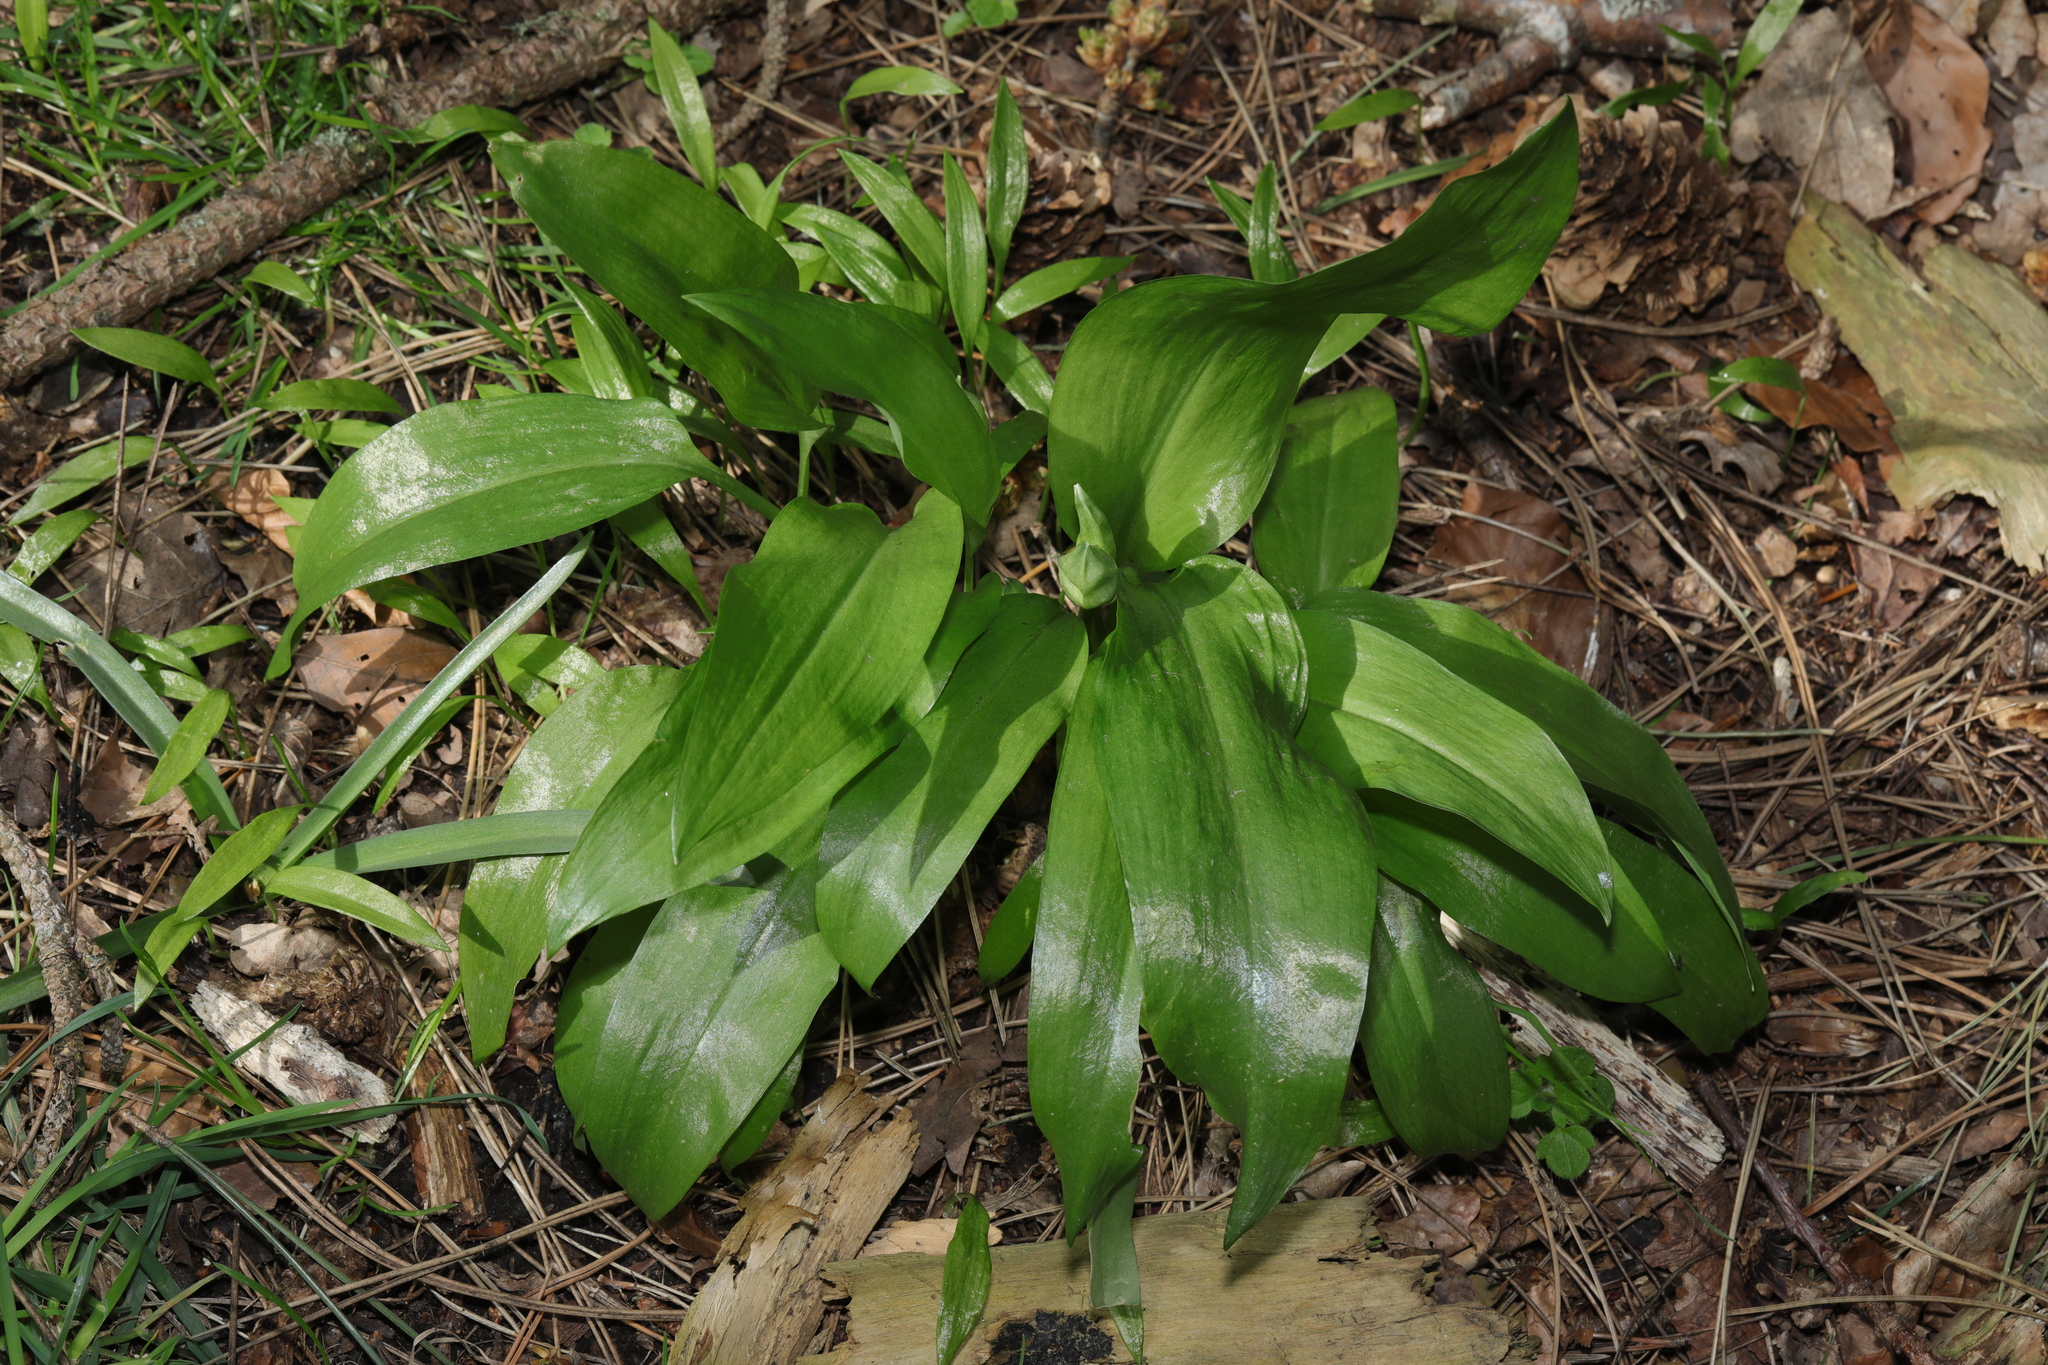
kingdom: Plantae
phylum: Tracheophyta
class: Liliopsida
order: Asparagales
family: Amaryllidaceae
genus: Allium
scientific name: Allium ursinum
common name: Ramsons
